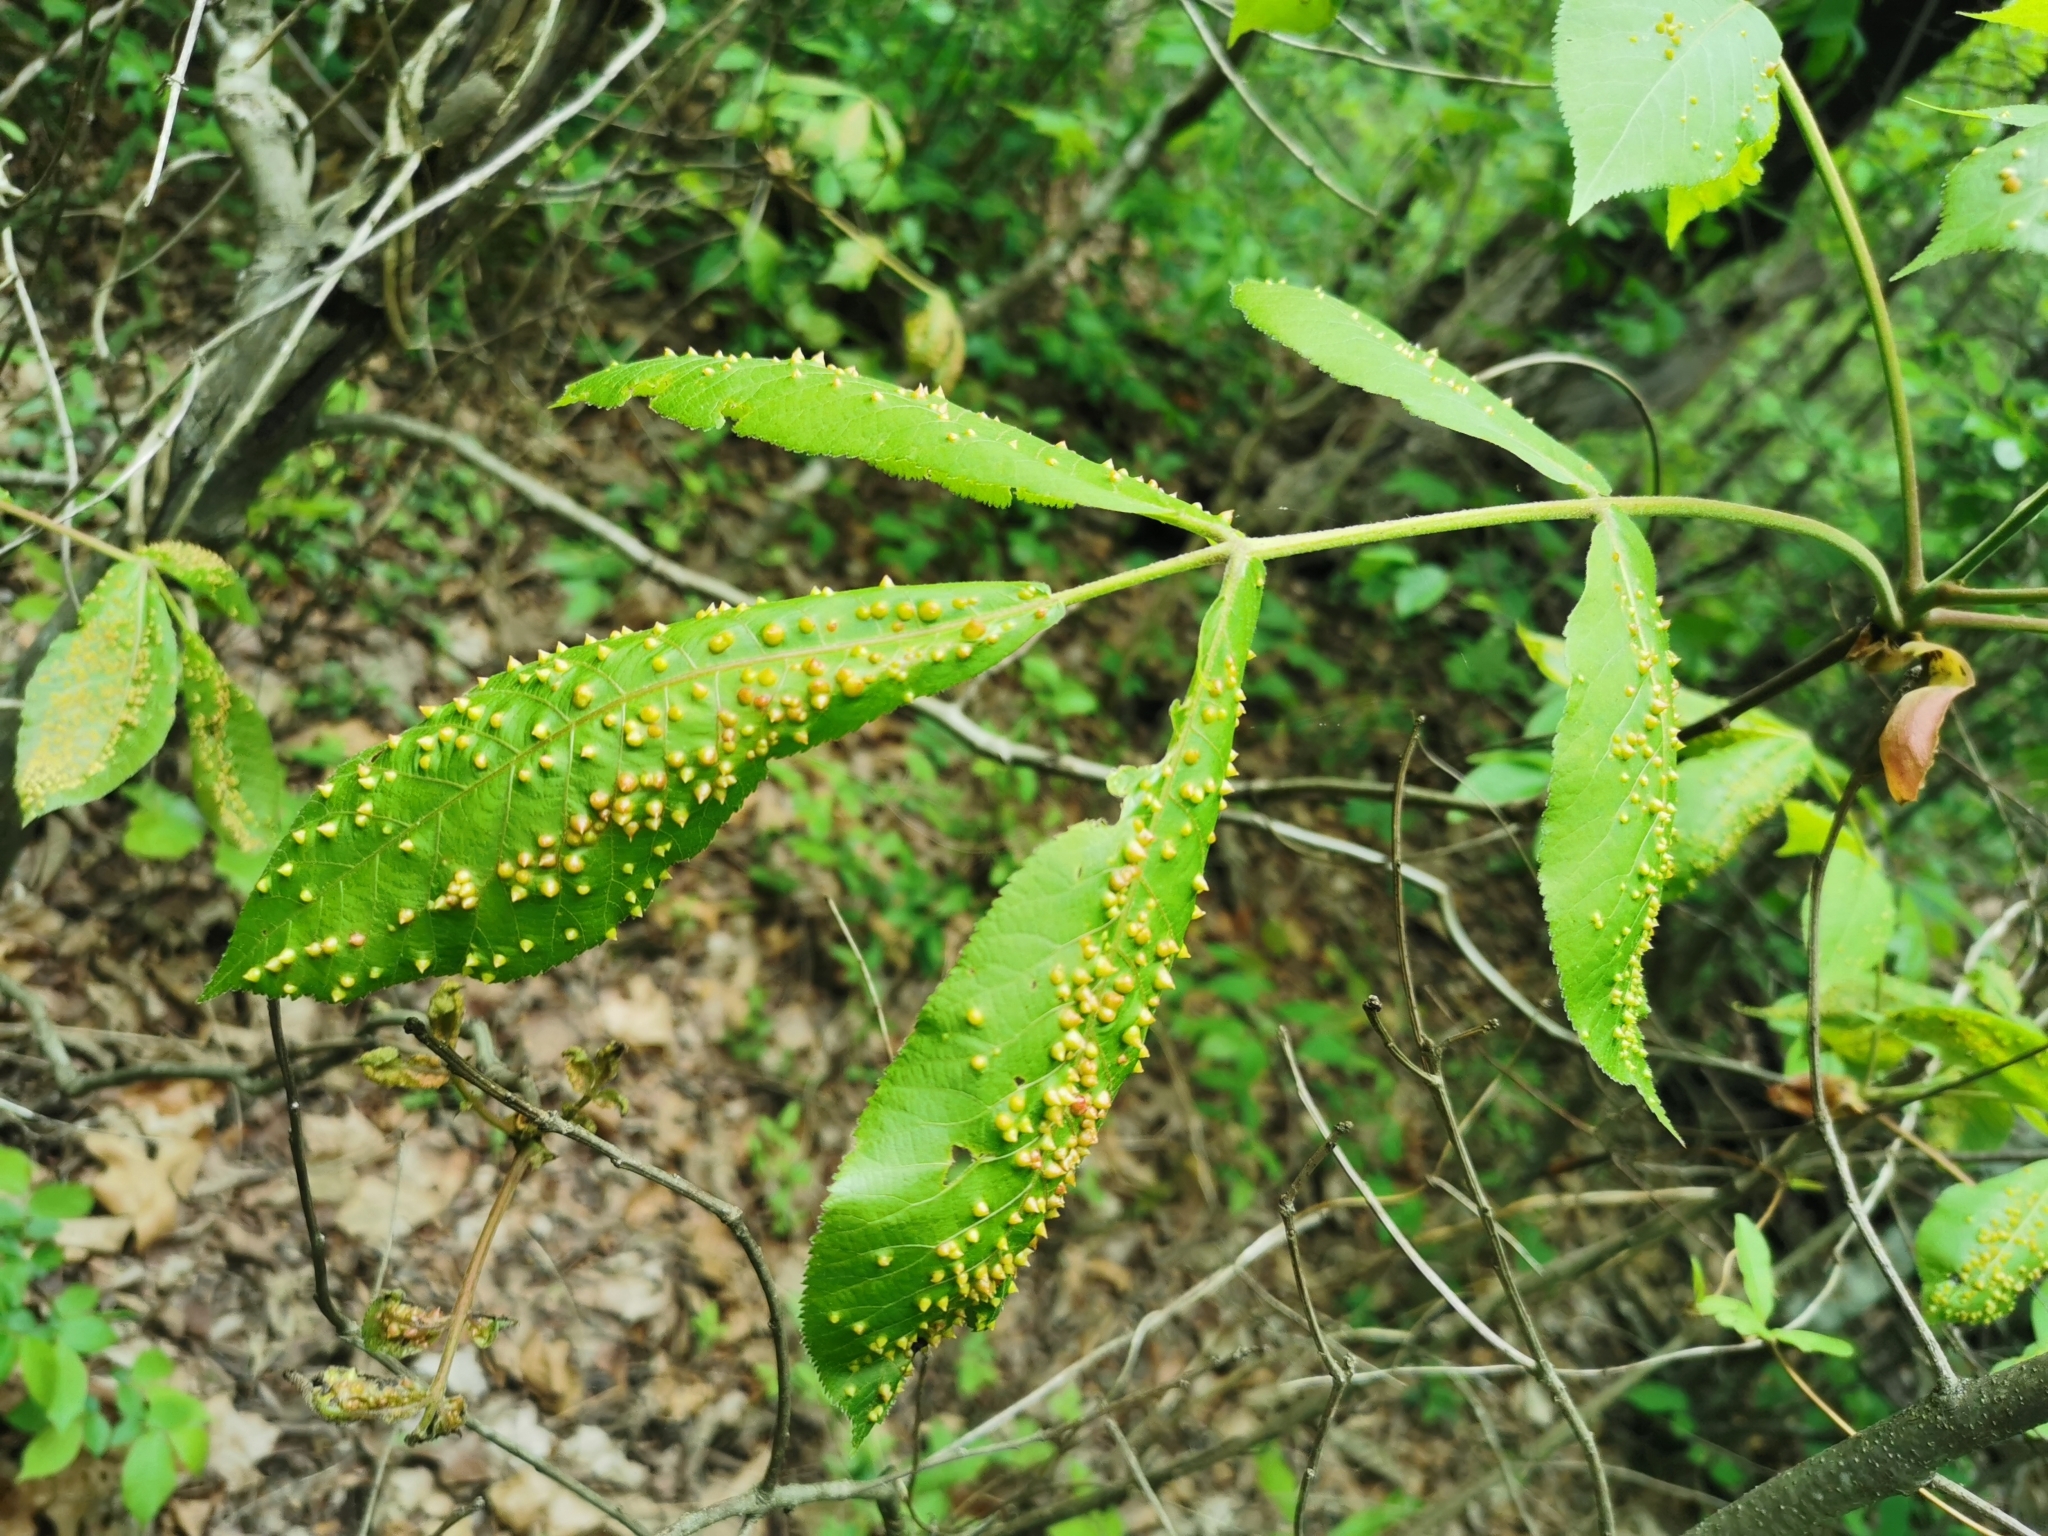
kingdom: Animalia
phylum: Arthropoda
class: Insecta
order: Hemiptera
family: Phylloxeridae
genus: Phylloxera
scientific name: Phylloxera caryaefallax
